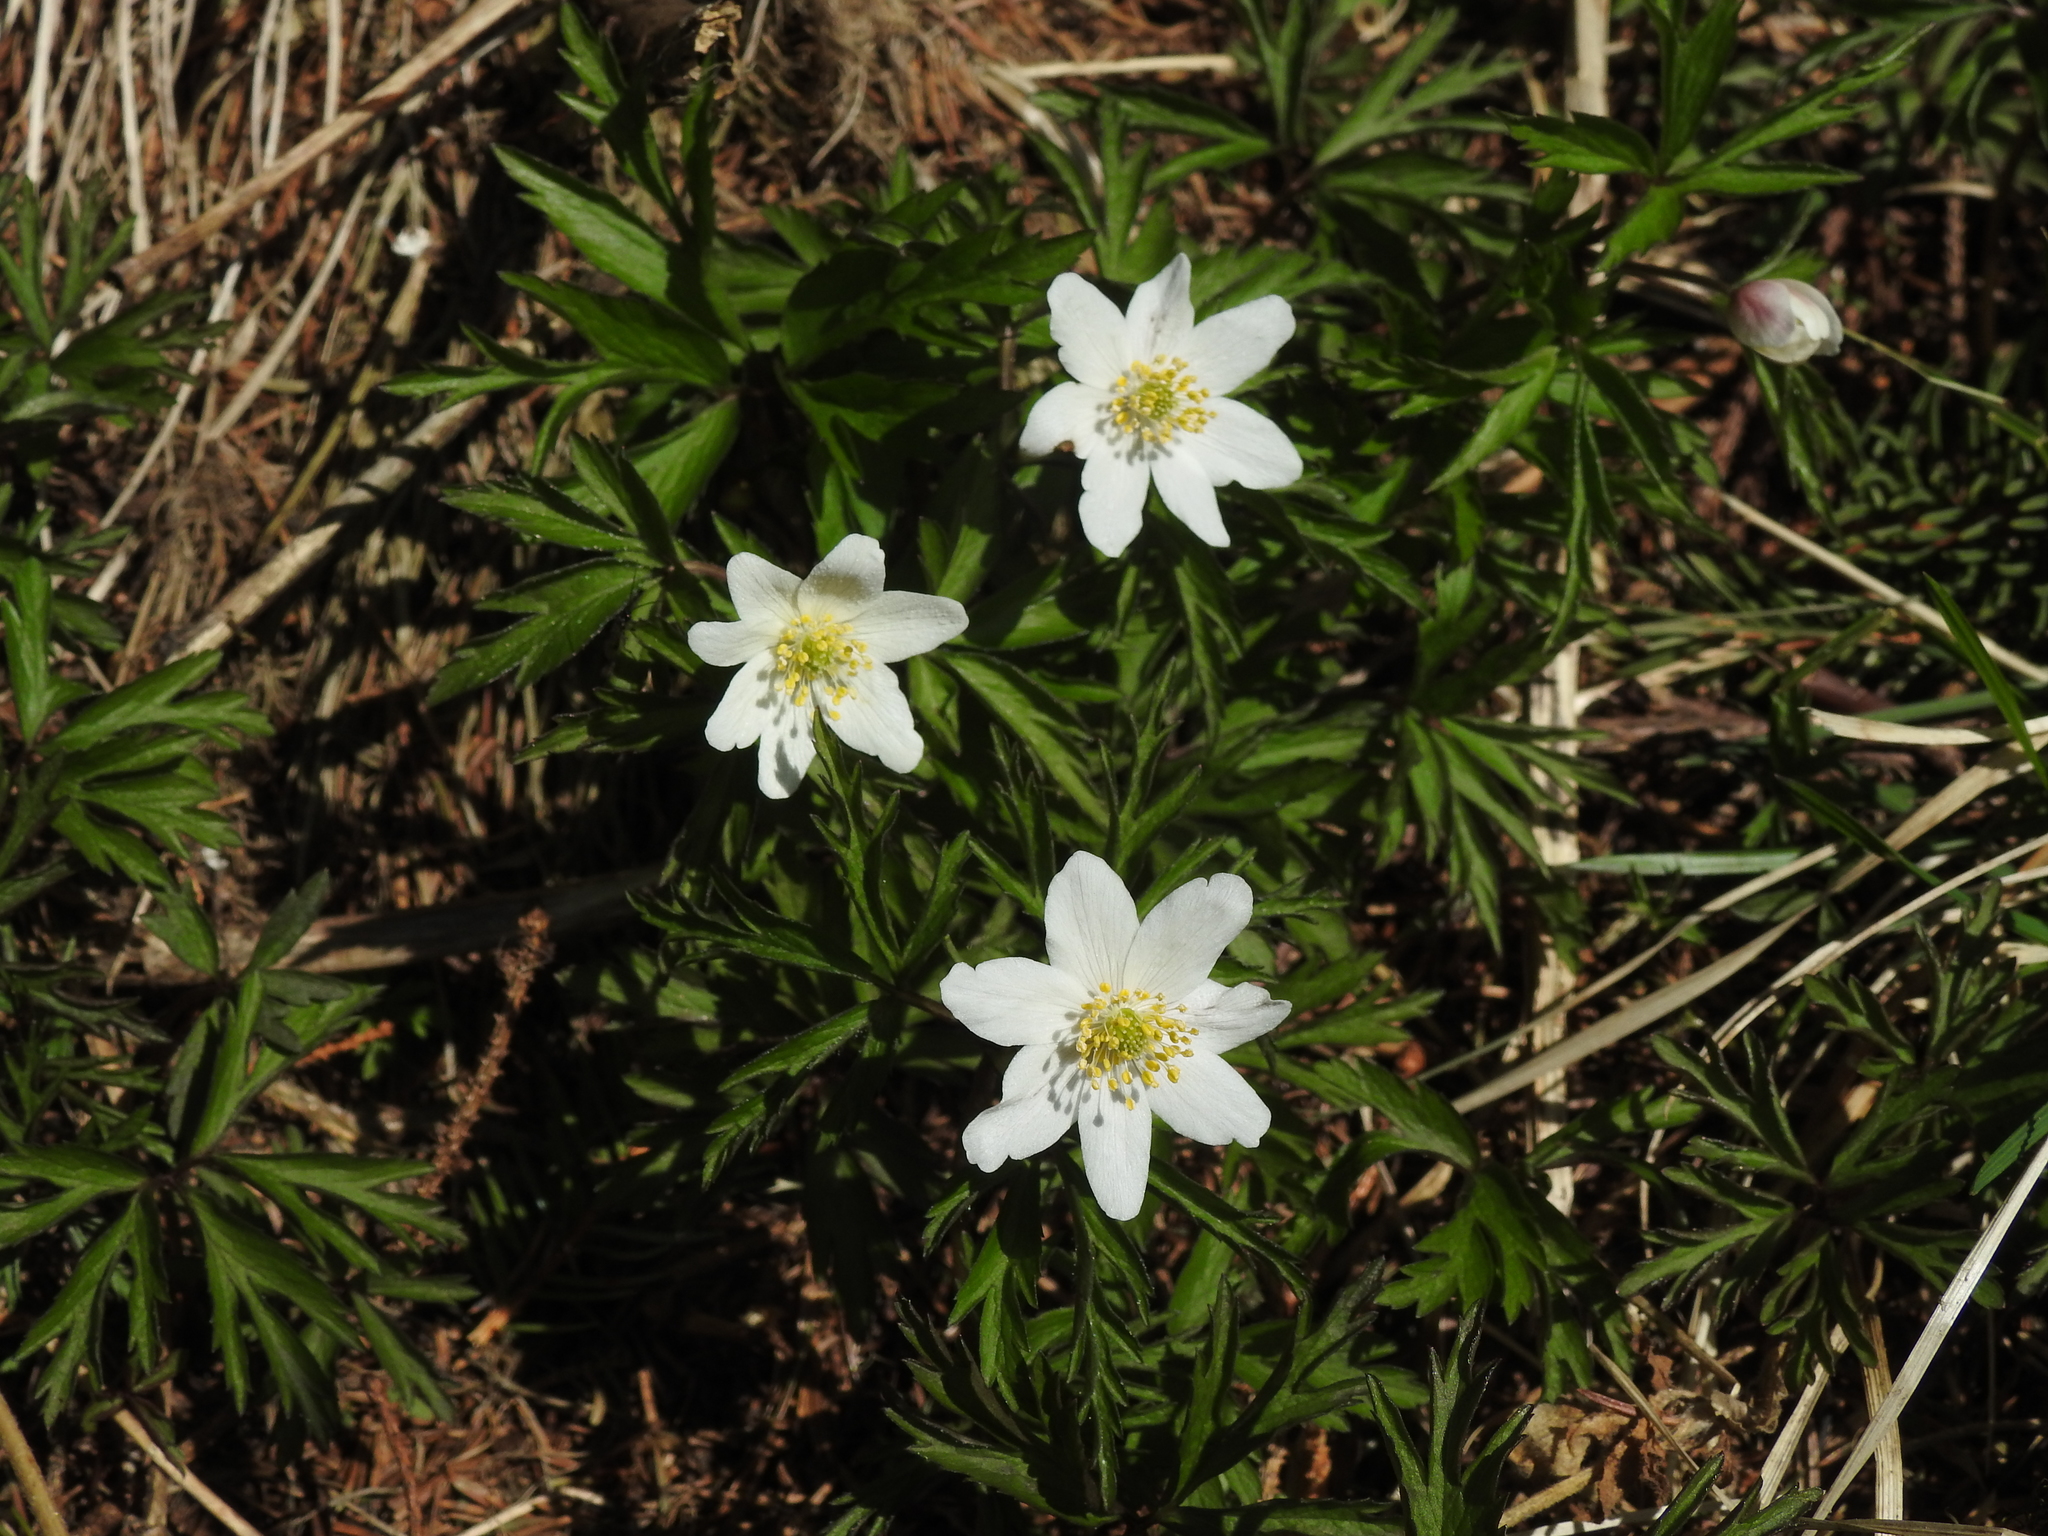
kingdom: Plantae
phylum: Tracheophyta
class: Magnoliopsida
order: Ranunculales
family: Ranunculaceae
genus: Anemone
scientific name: Anemone nemorosa
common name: Wood anemone
